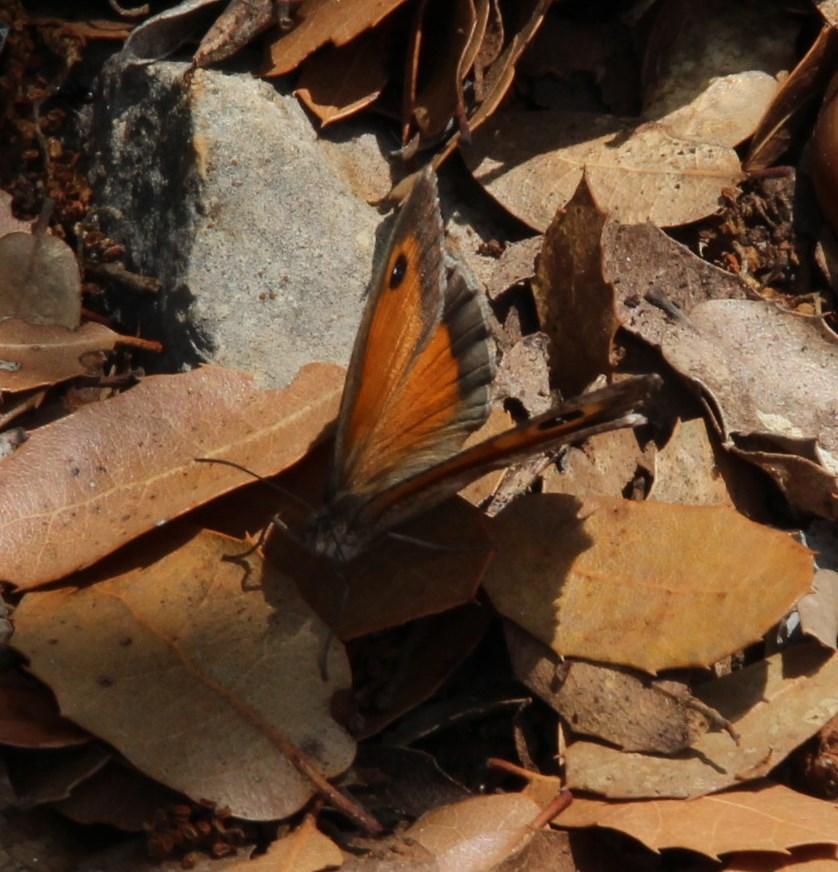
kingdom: Animalia
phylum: Arthropoda
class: Insecta
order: Lepidoptera
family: Nymphalidae
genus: Pyronia
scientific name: Pyronia cecilia
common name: Southern gatekeeper
